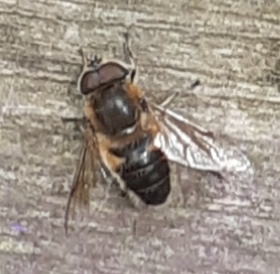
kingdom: Animalia
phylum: Arthropoda
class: Insecta
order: Diptera
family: Syrphidae
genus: Eristalis
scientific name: Eristalis
